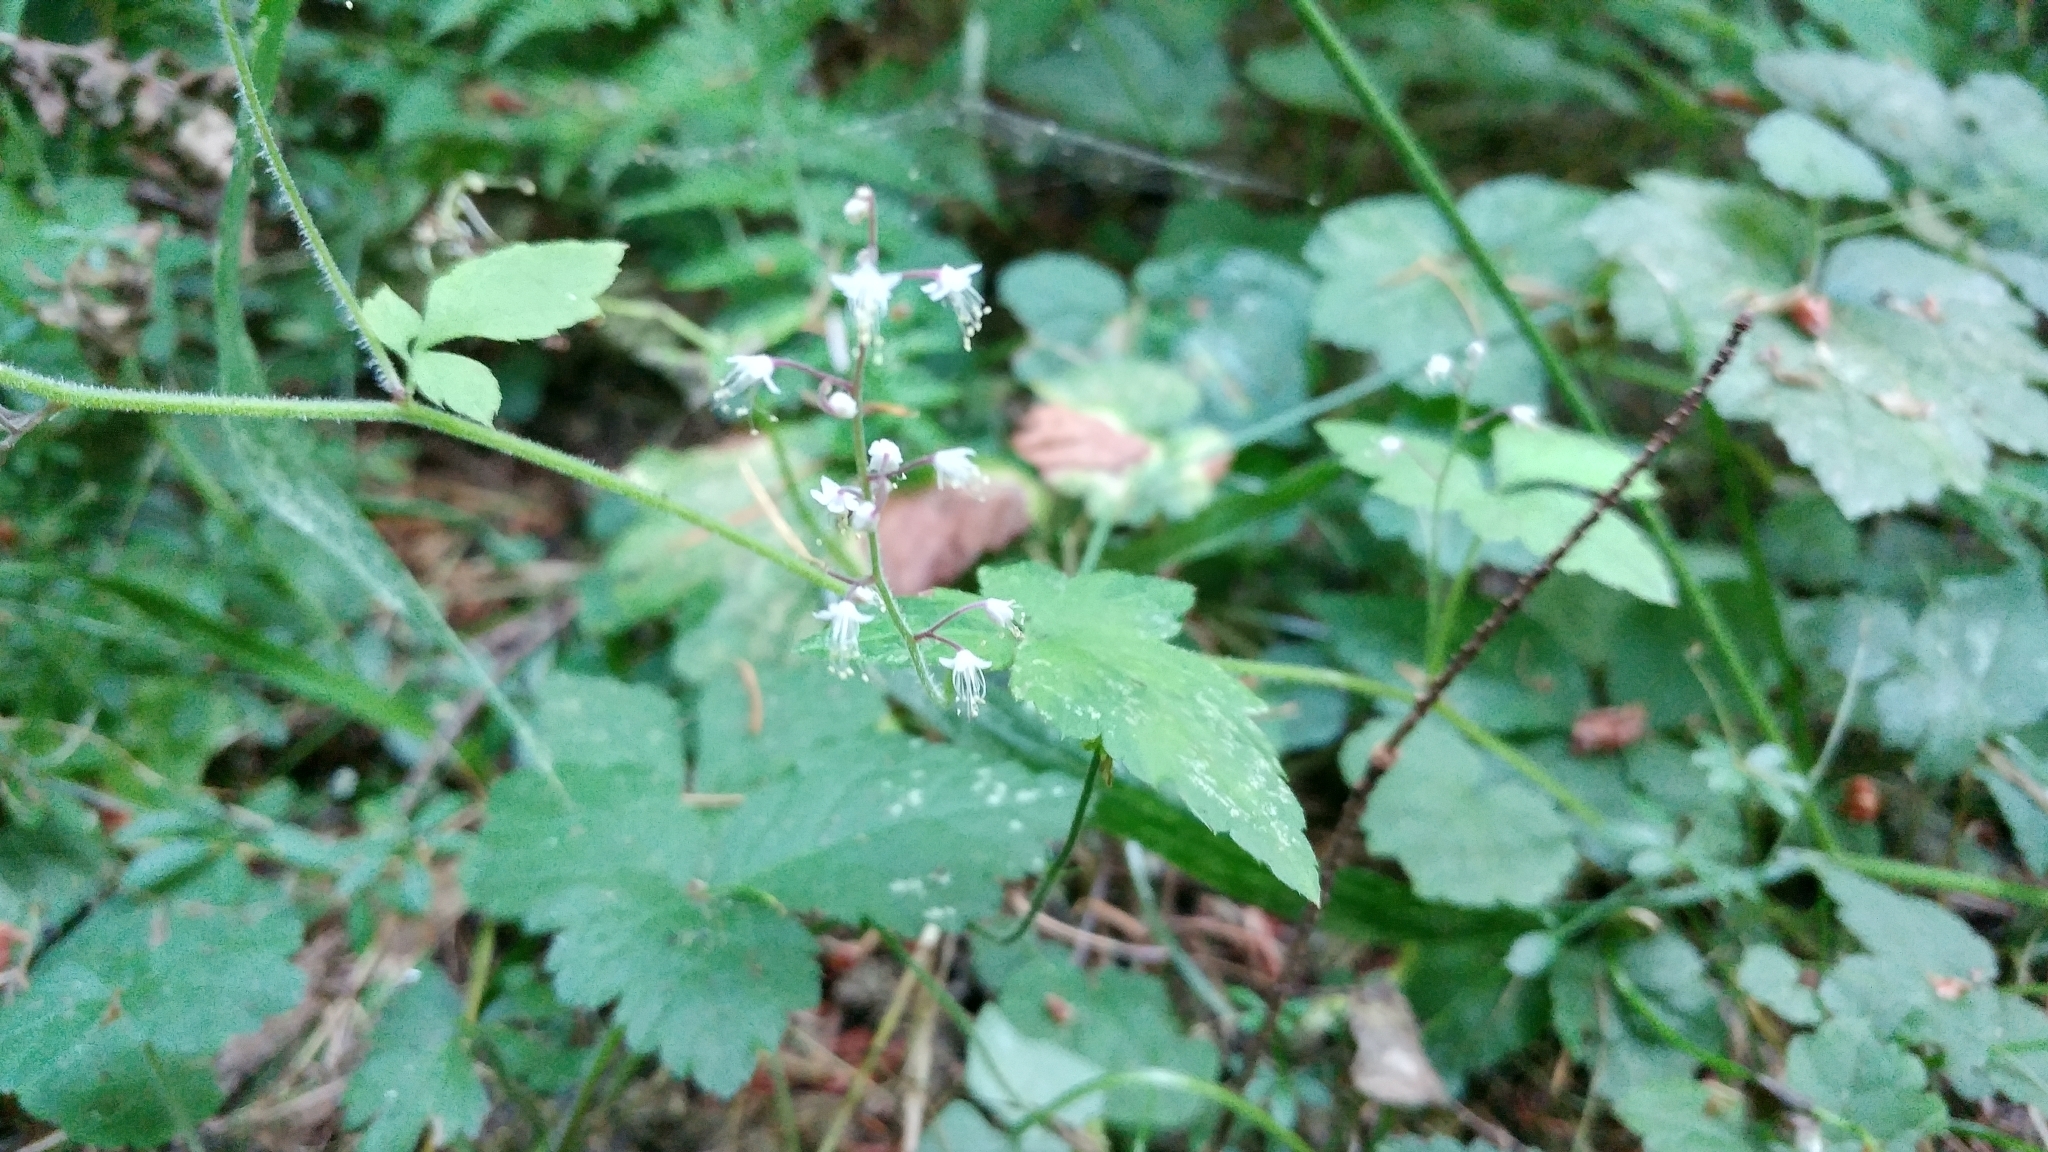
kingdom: Plantae
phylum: Tracheophyta
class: Magnoliopsida
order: Saxifragales
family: Saxifragaceae
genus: Tiarella
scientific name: Tiarella trifoliata
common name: Sugar-scoop
